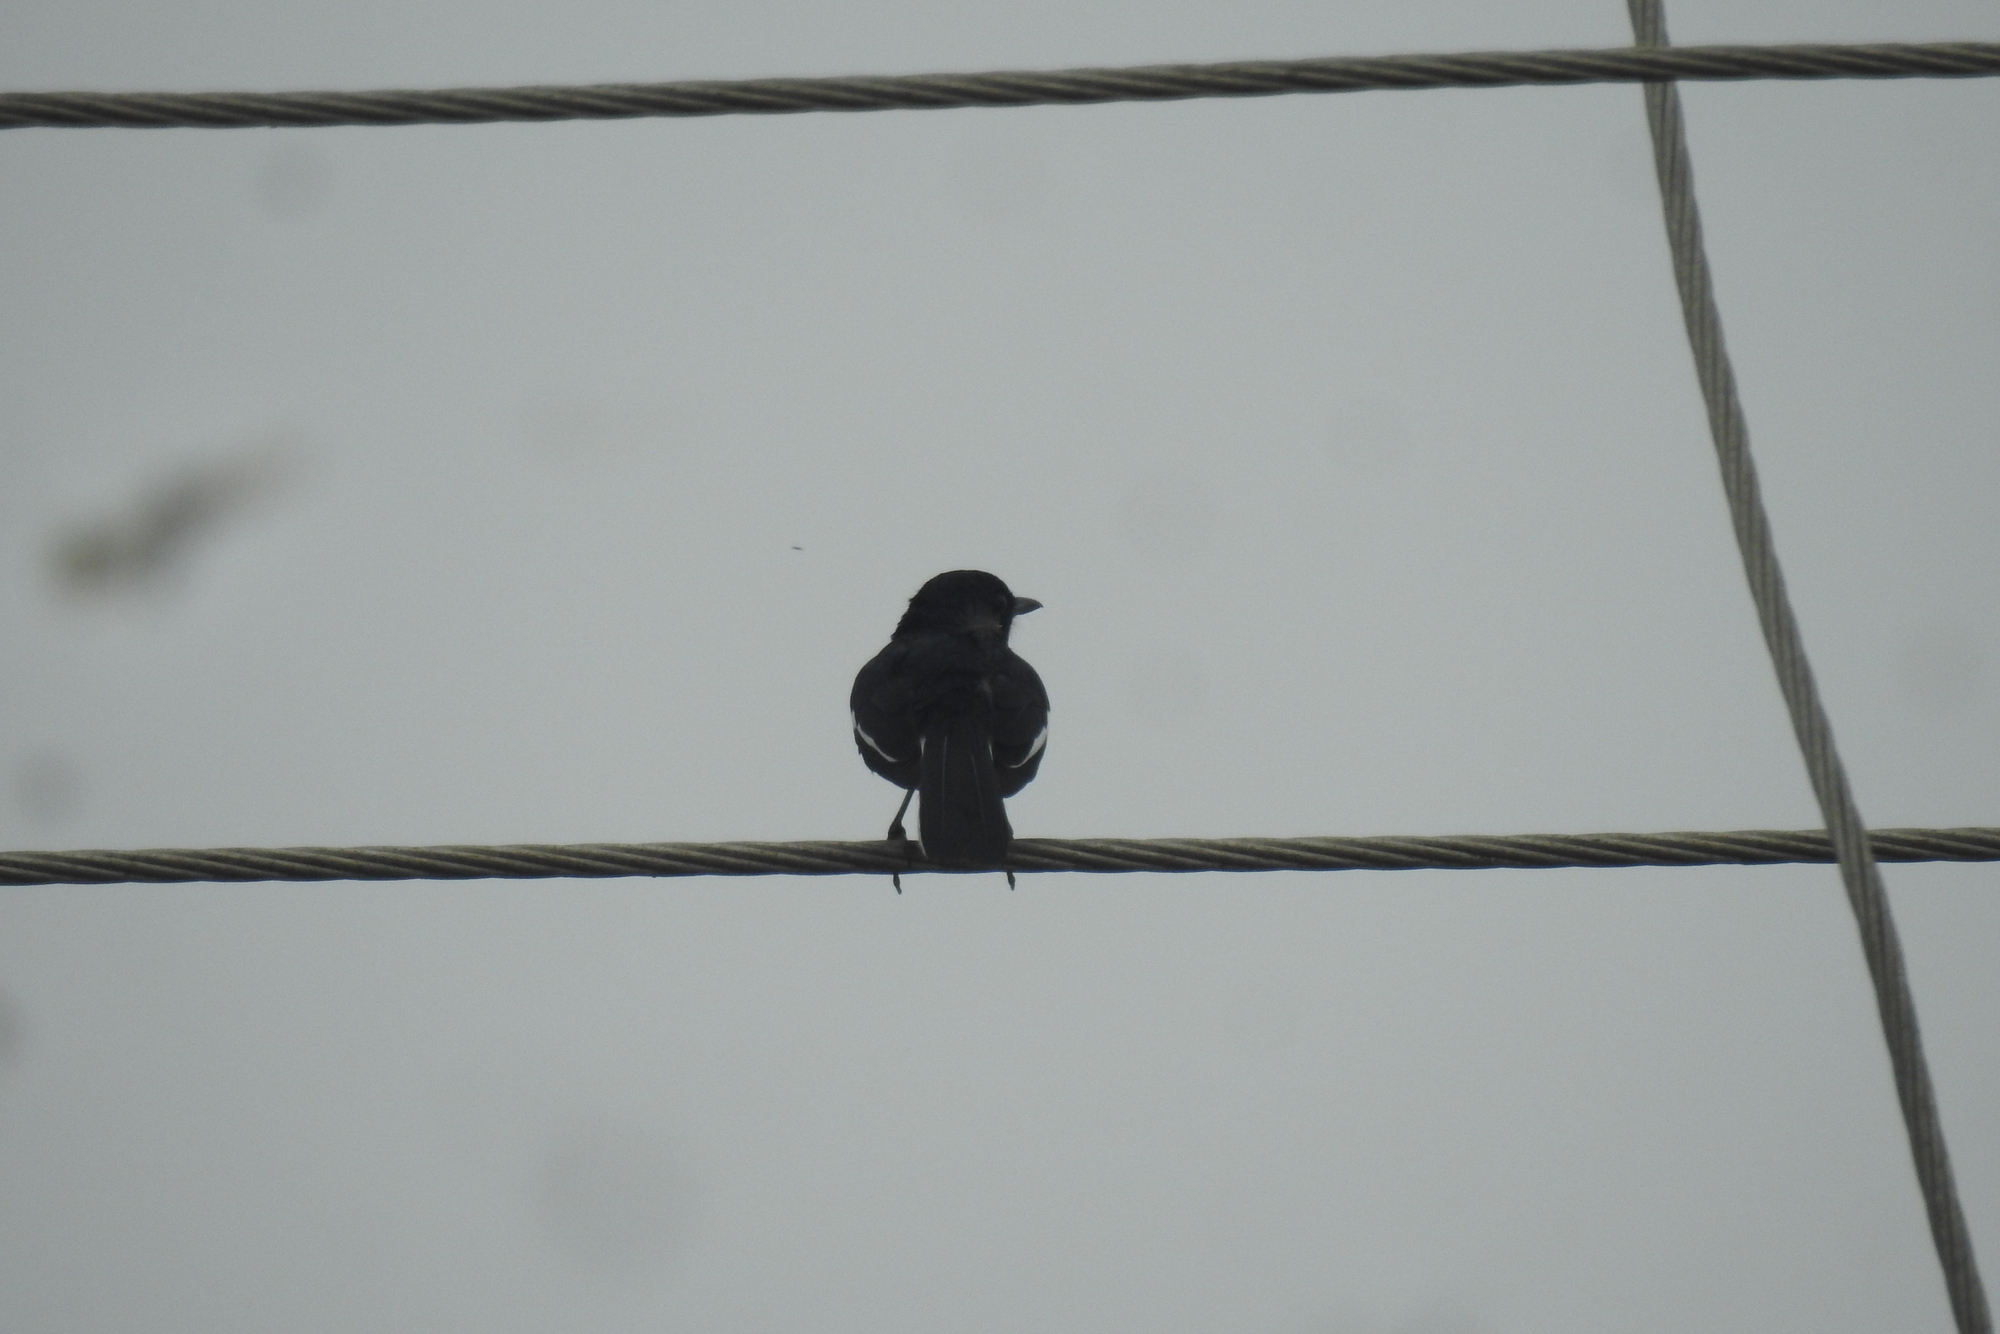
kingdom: Animalia
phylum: Chordata
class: Aves
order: Passeriformes
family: Muscicapidae
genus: Copsychus
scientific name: Copsychus saularis
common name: Oriental magpie-robin
